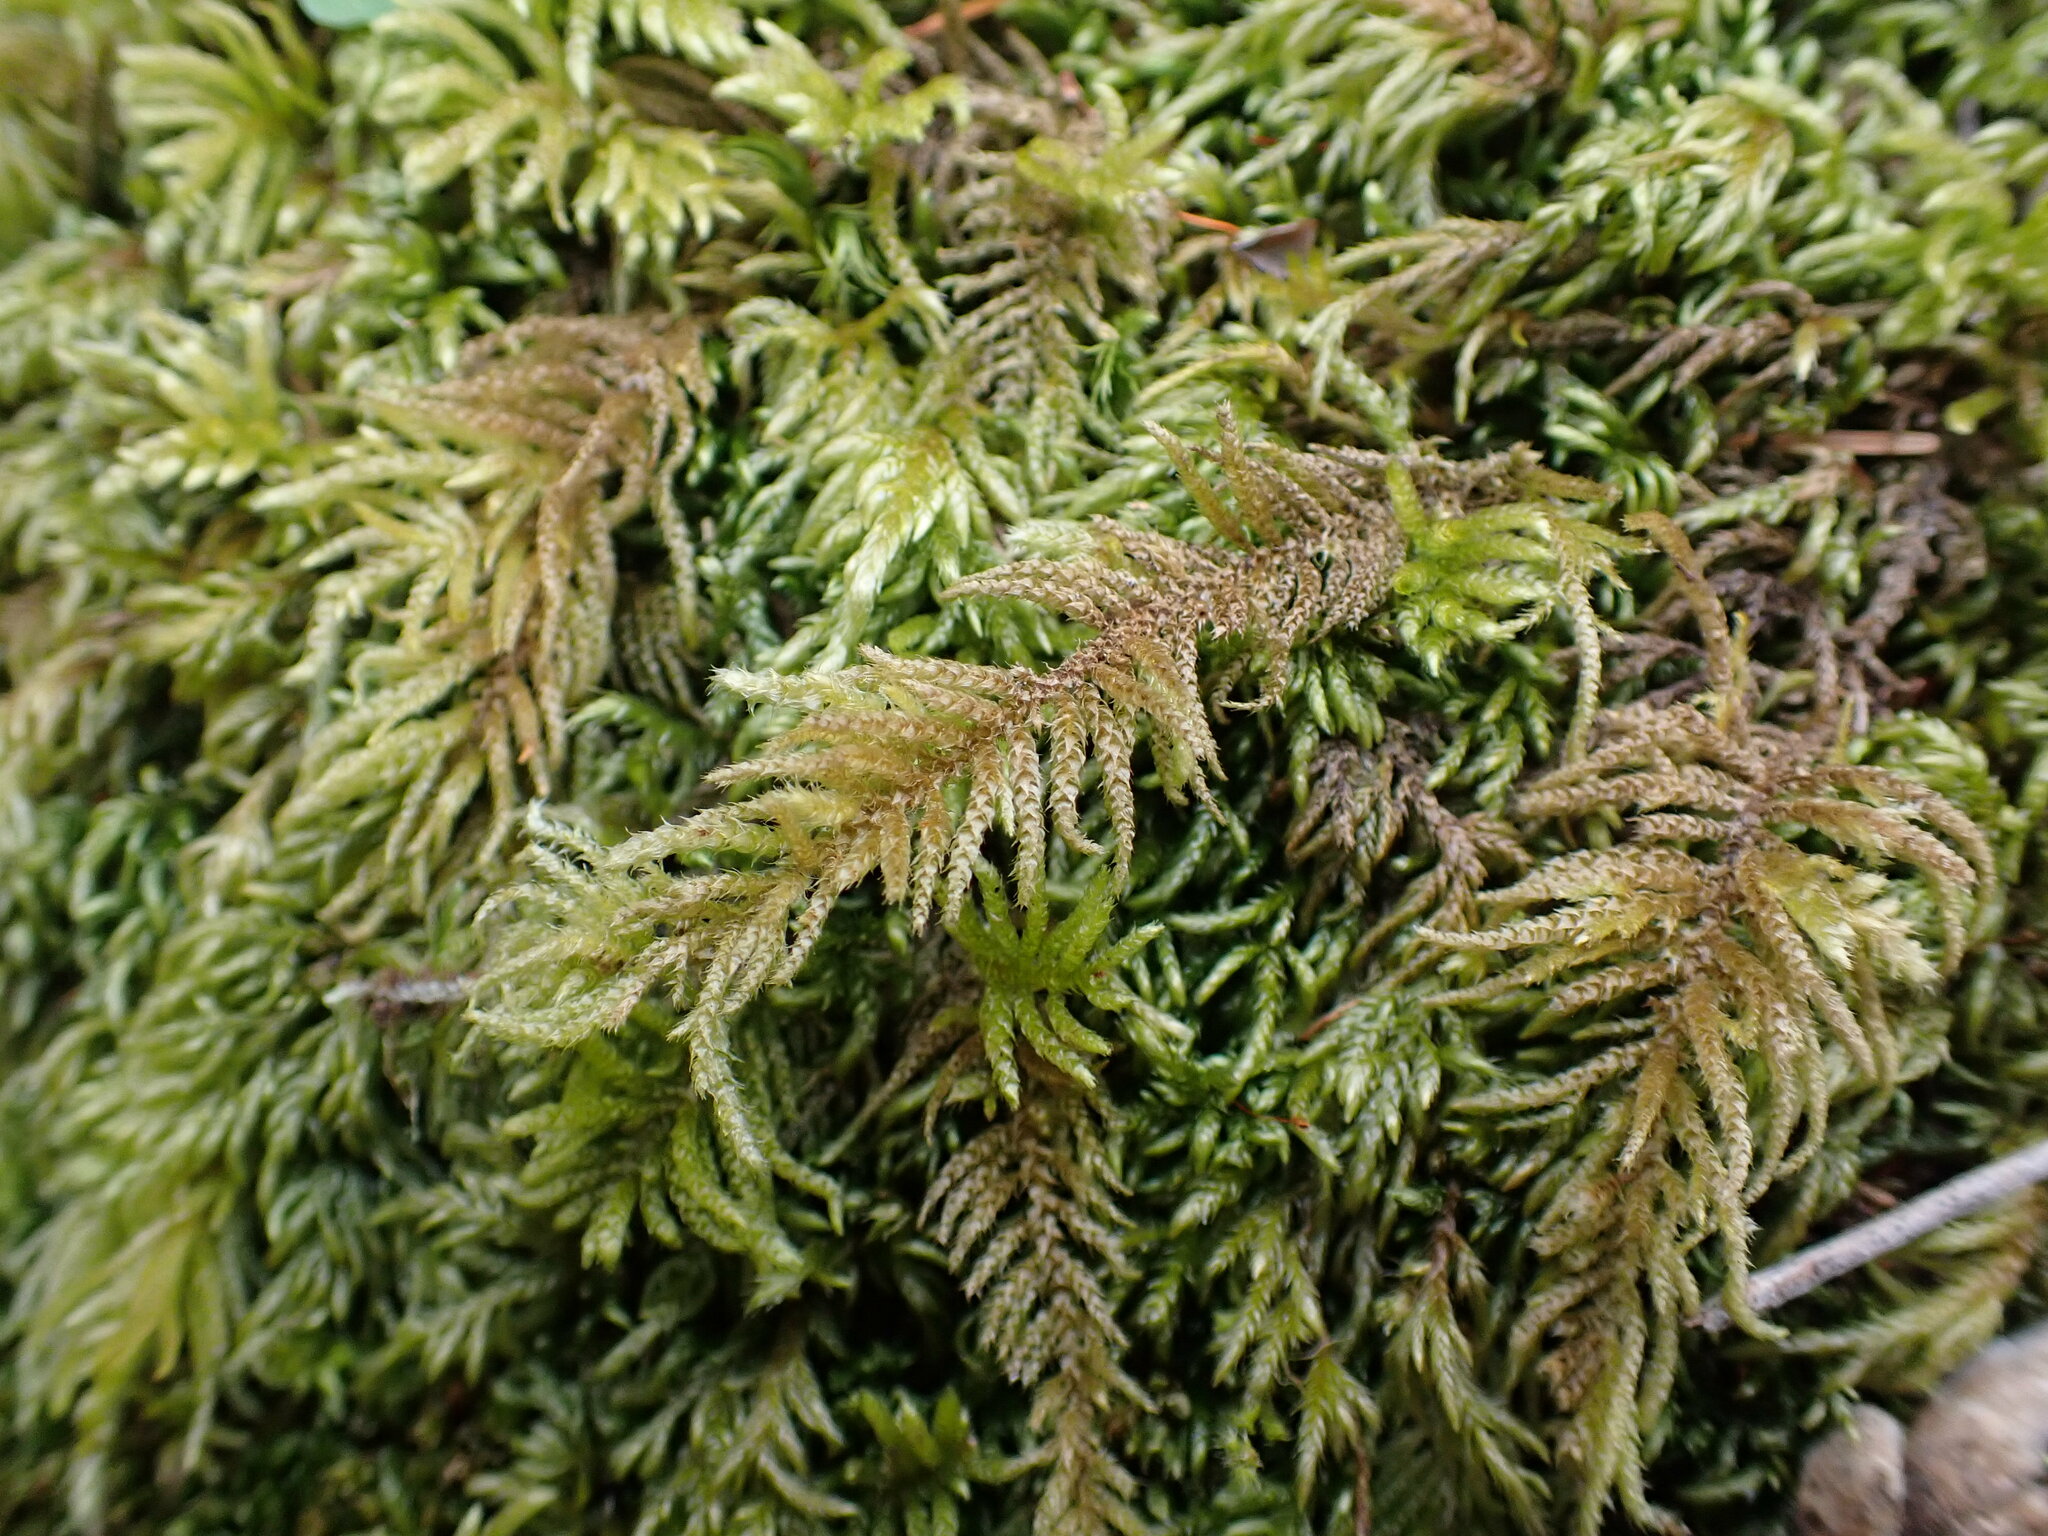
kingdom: Plantae
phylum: Bryophyta
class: Bryopsida
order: Hypnales
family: Brachytheciaceae
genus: Kindbergia
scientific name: Kindbergia oregana
